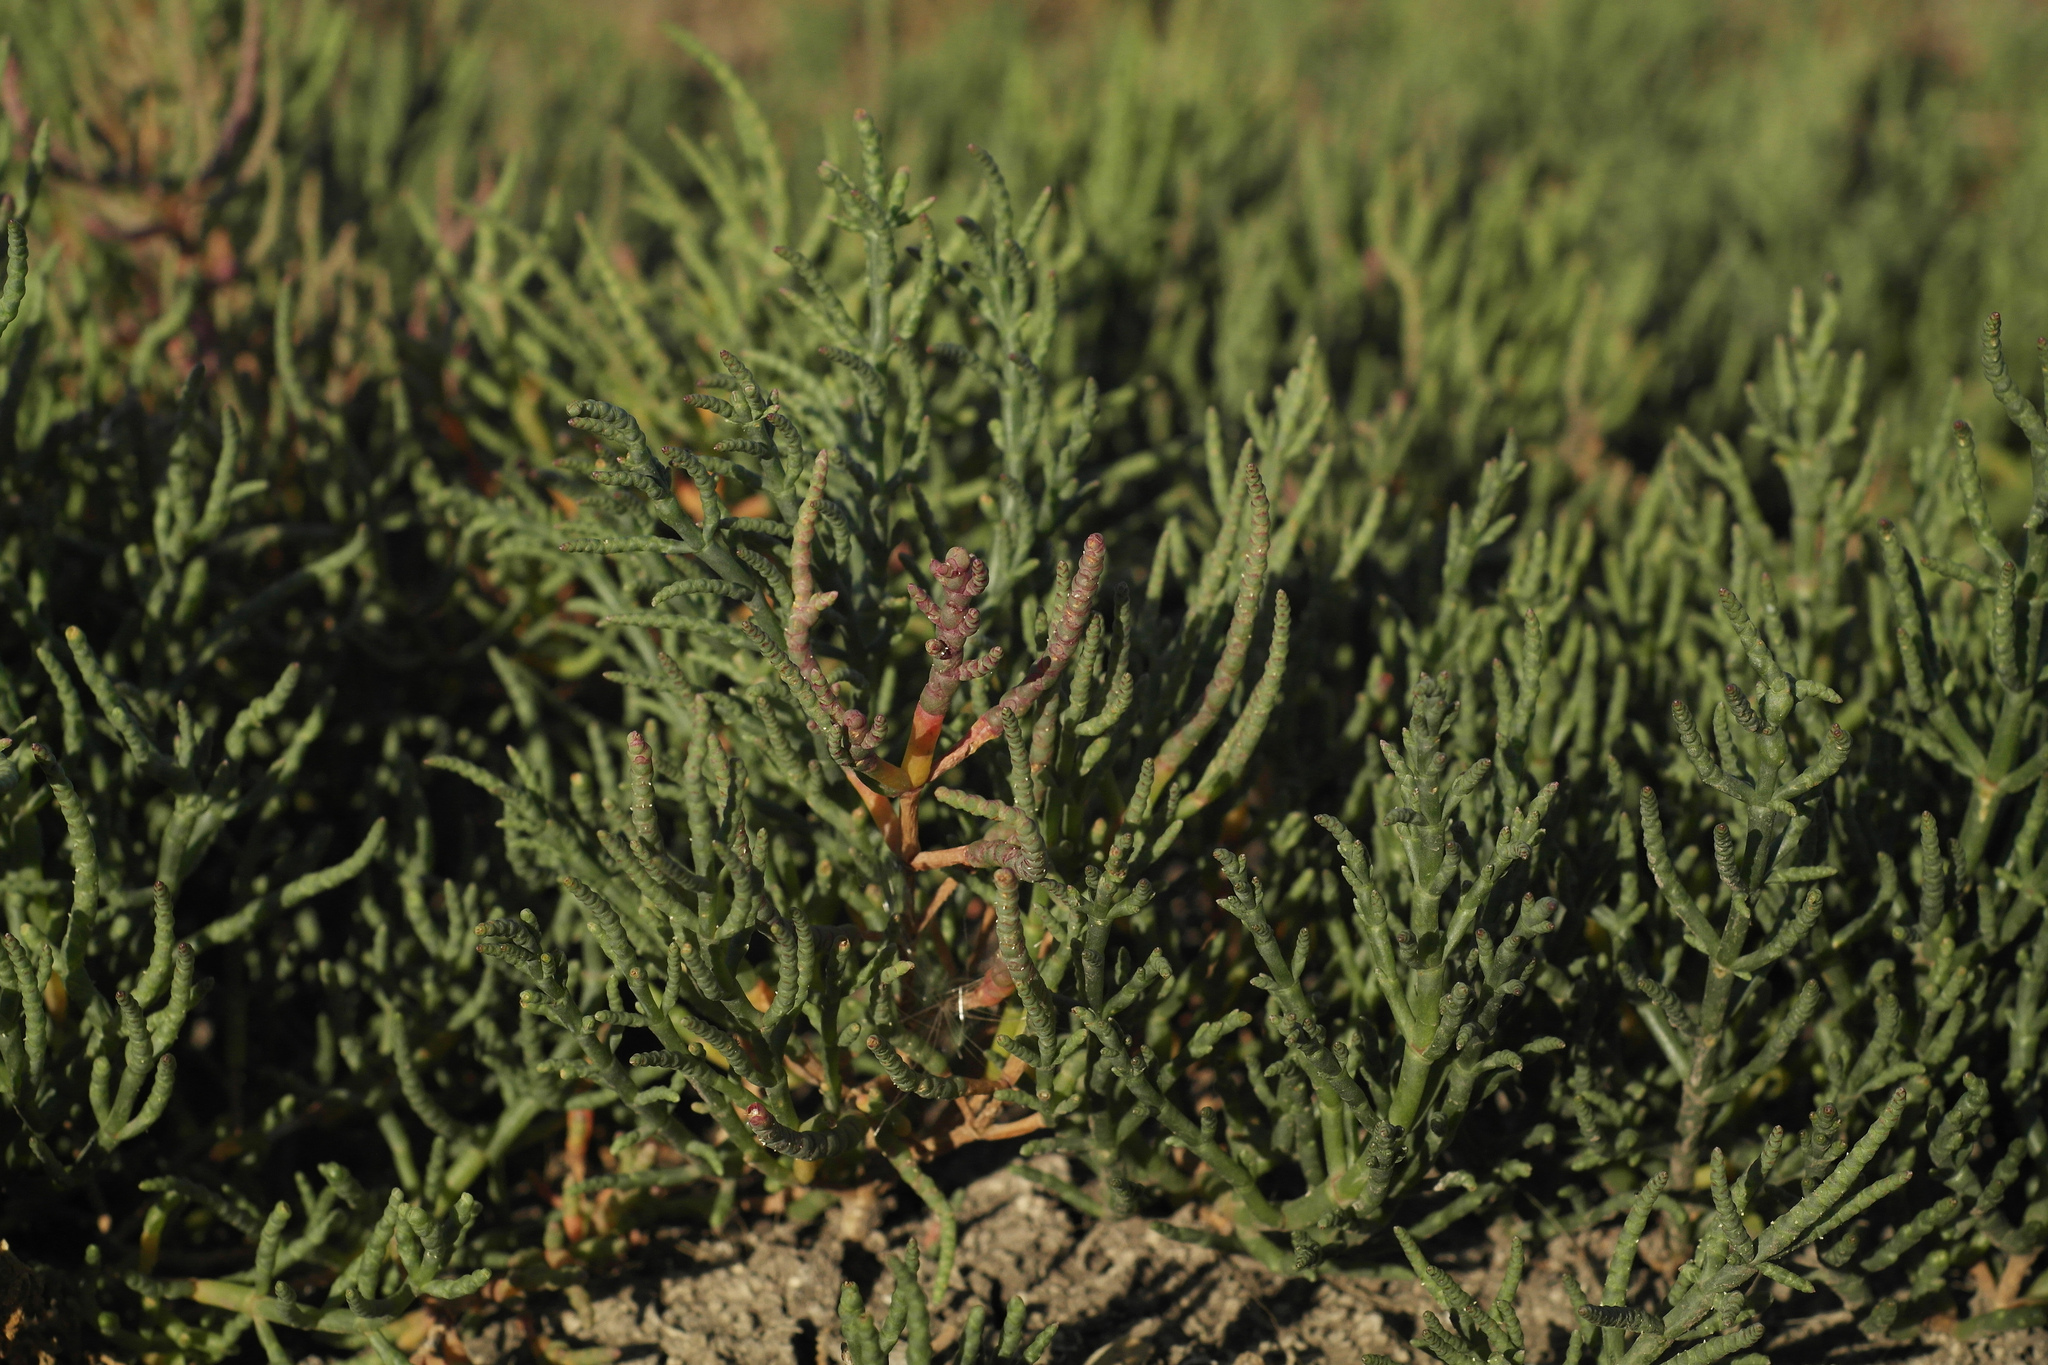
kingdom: Plantae
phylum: Tracheophyta
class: Magnoliopsida
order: Caryophyllales
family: Amaranthaceae
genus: Salicornia
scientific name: Salicornia perennans
